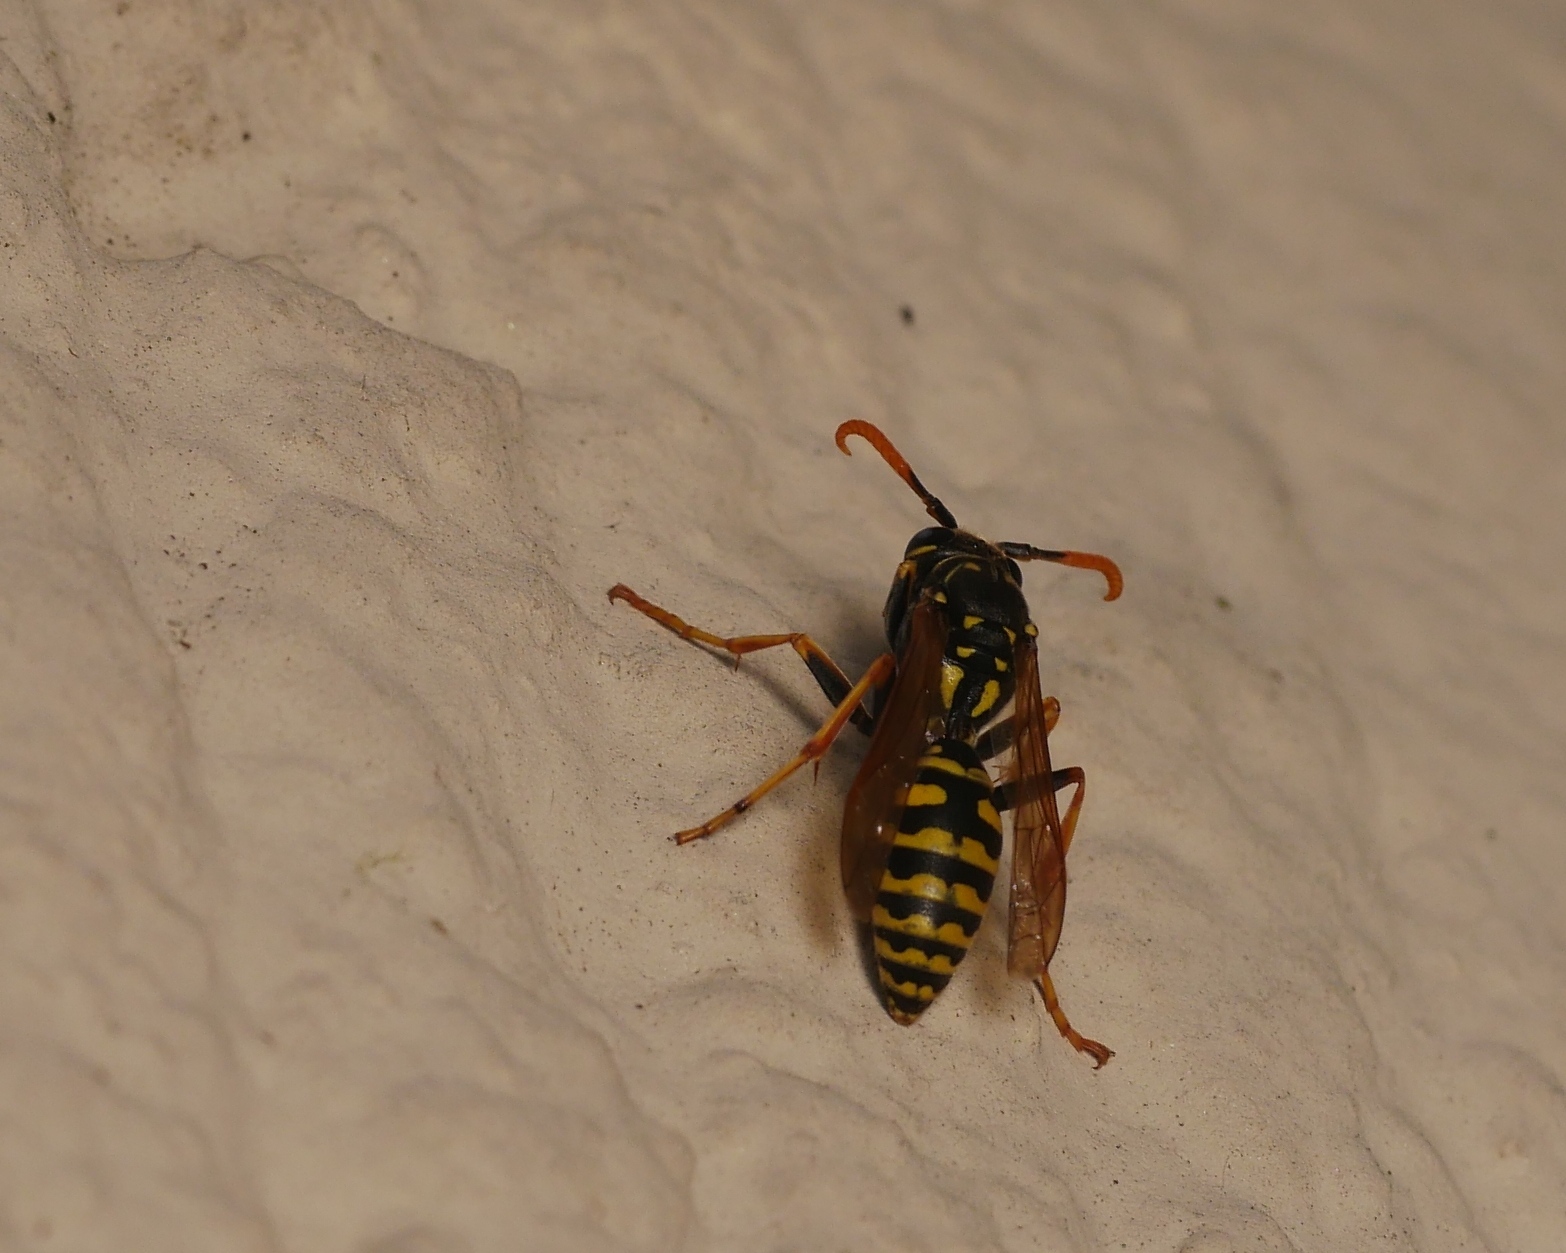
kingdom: Animalia
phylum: Arthropoda
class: Insecta
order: Hymenoptera
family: Eumenidae
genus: Polistes
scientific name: Polistes dominula
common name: Paper wasp
